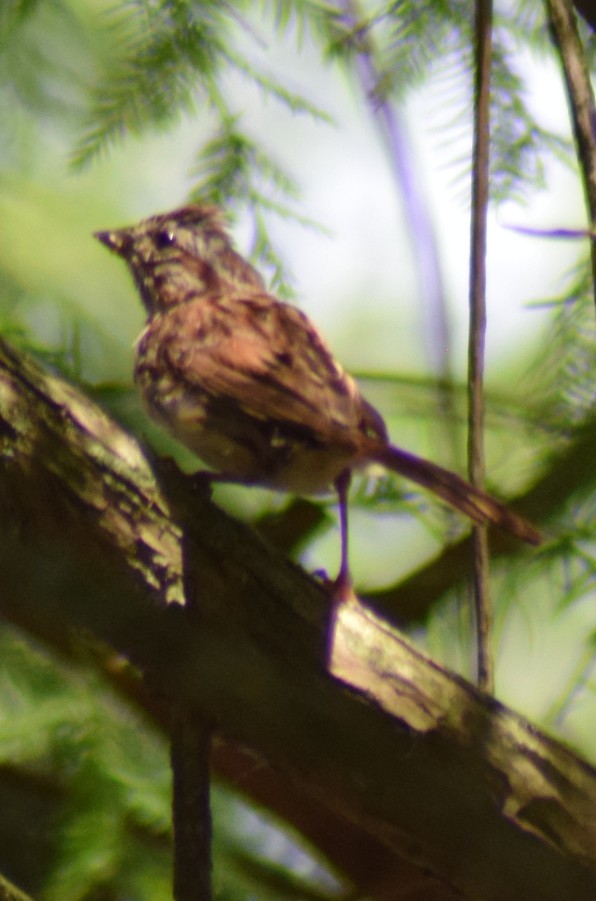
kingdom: Animalia
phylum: Chordata
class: Aves
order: Passeriformes
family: Passerellidae
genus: Melospiza
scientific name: Melospiza melodia
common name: Song sparrow
